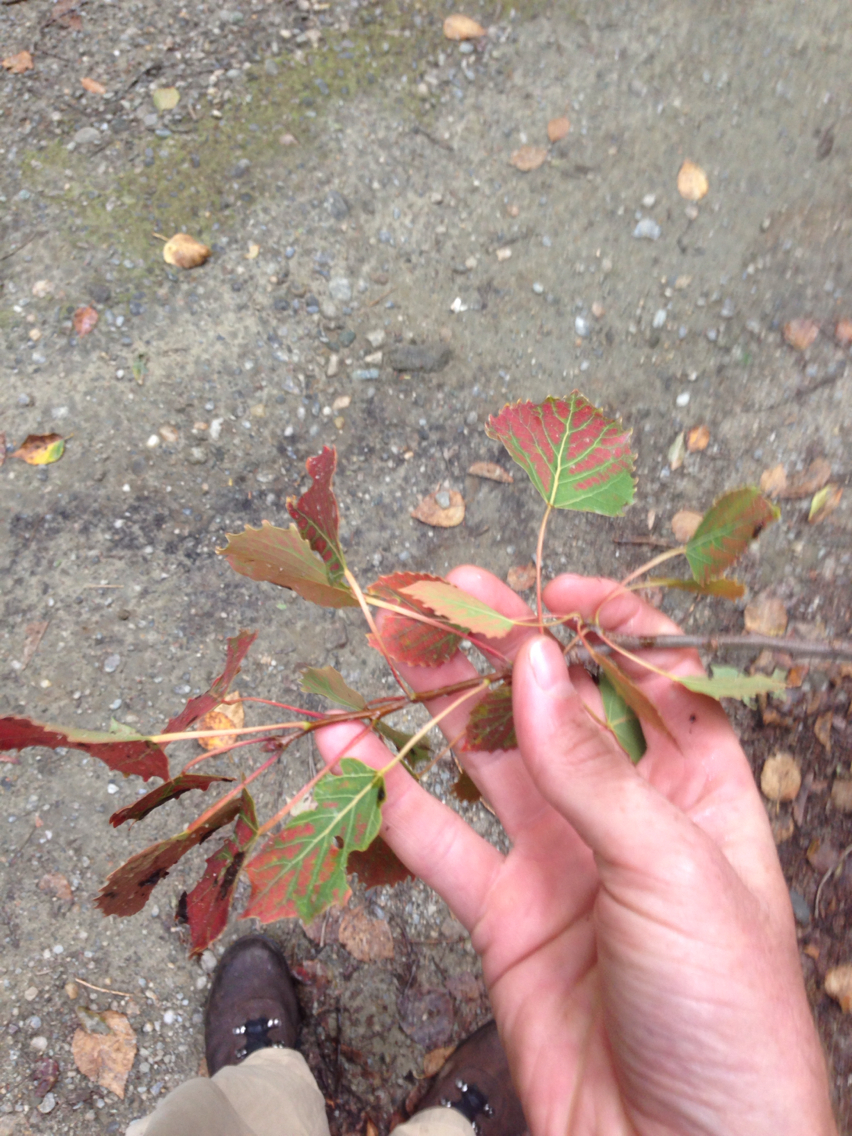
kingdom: Plantae
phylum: Tracheophyta
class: Magnoliopsida
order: Malpighiales
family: Salicaceae
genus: Populus
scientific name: Populus grandidentata
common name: Bigtooth aspen
